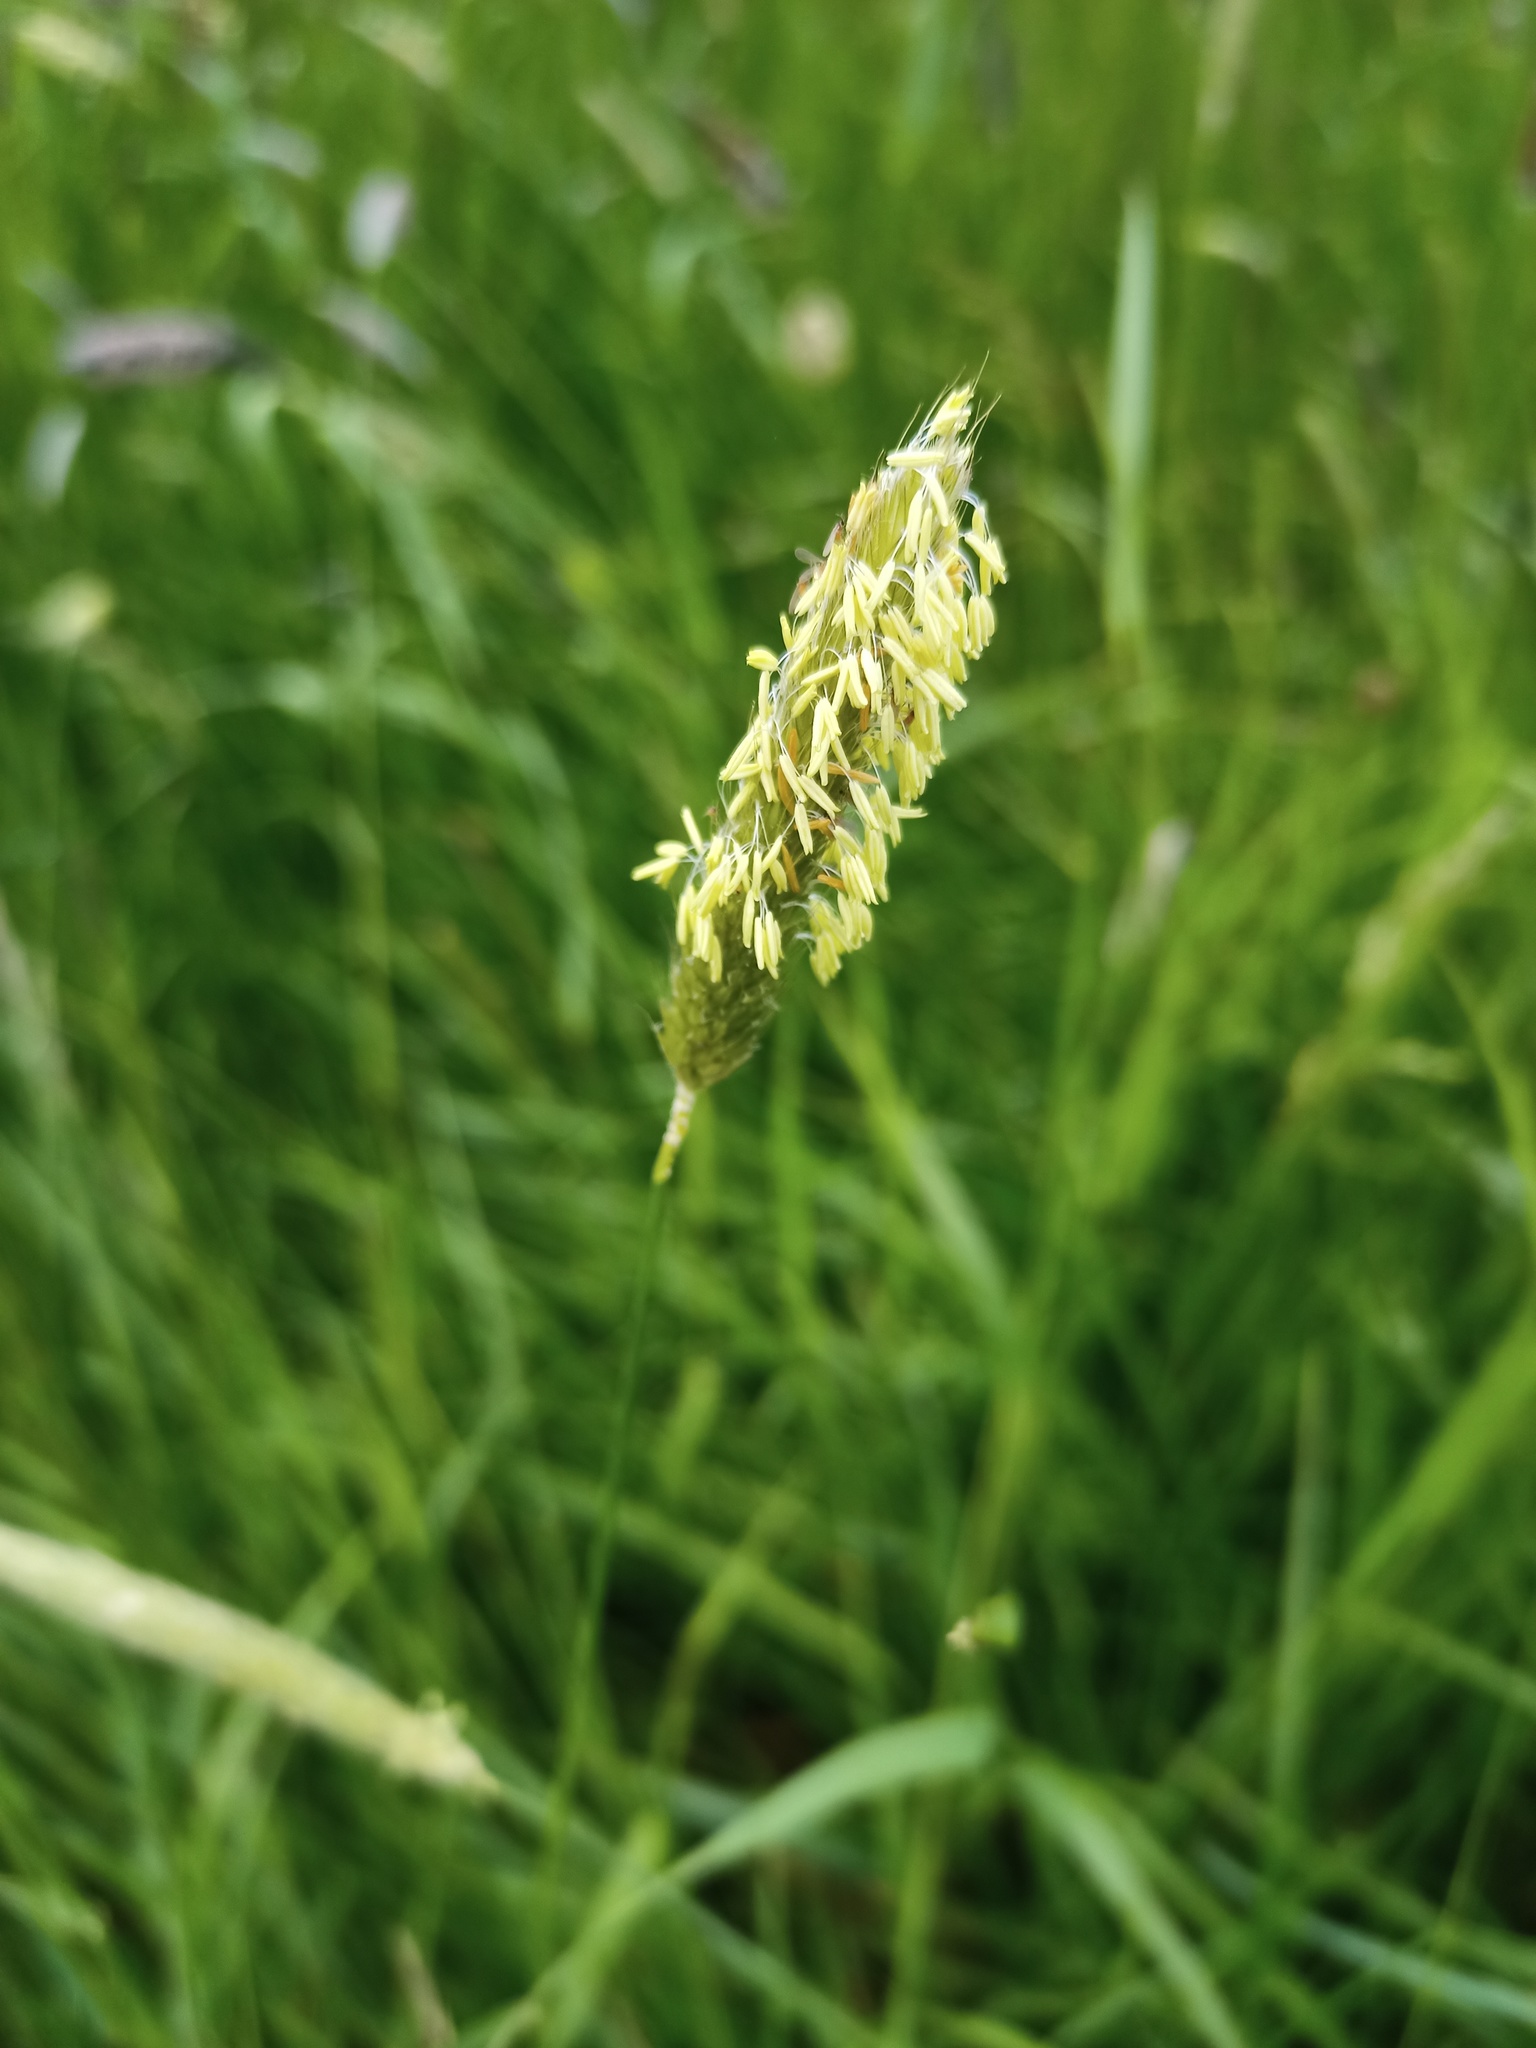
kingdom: Plantae
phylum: Tracheophyta
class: Liliopsida
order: Poales
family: Poaceae
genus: Alopecurus
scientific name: Alopecurus pratensis
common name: Meadow foxtail
